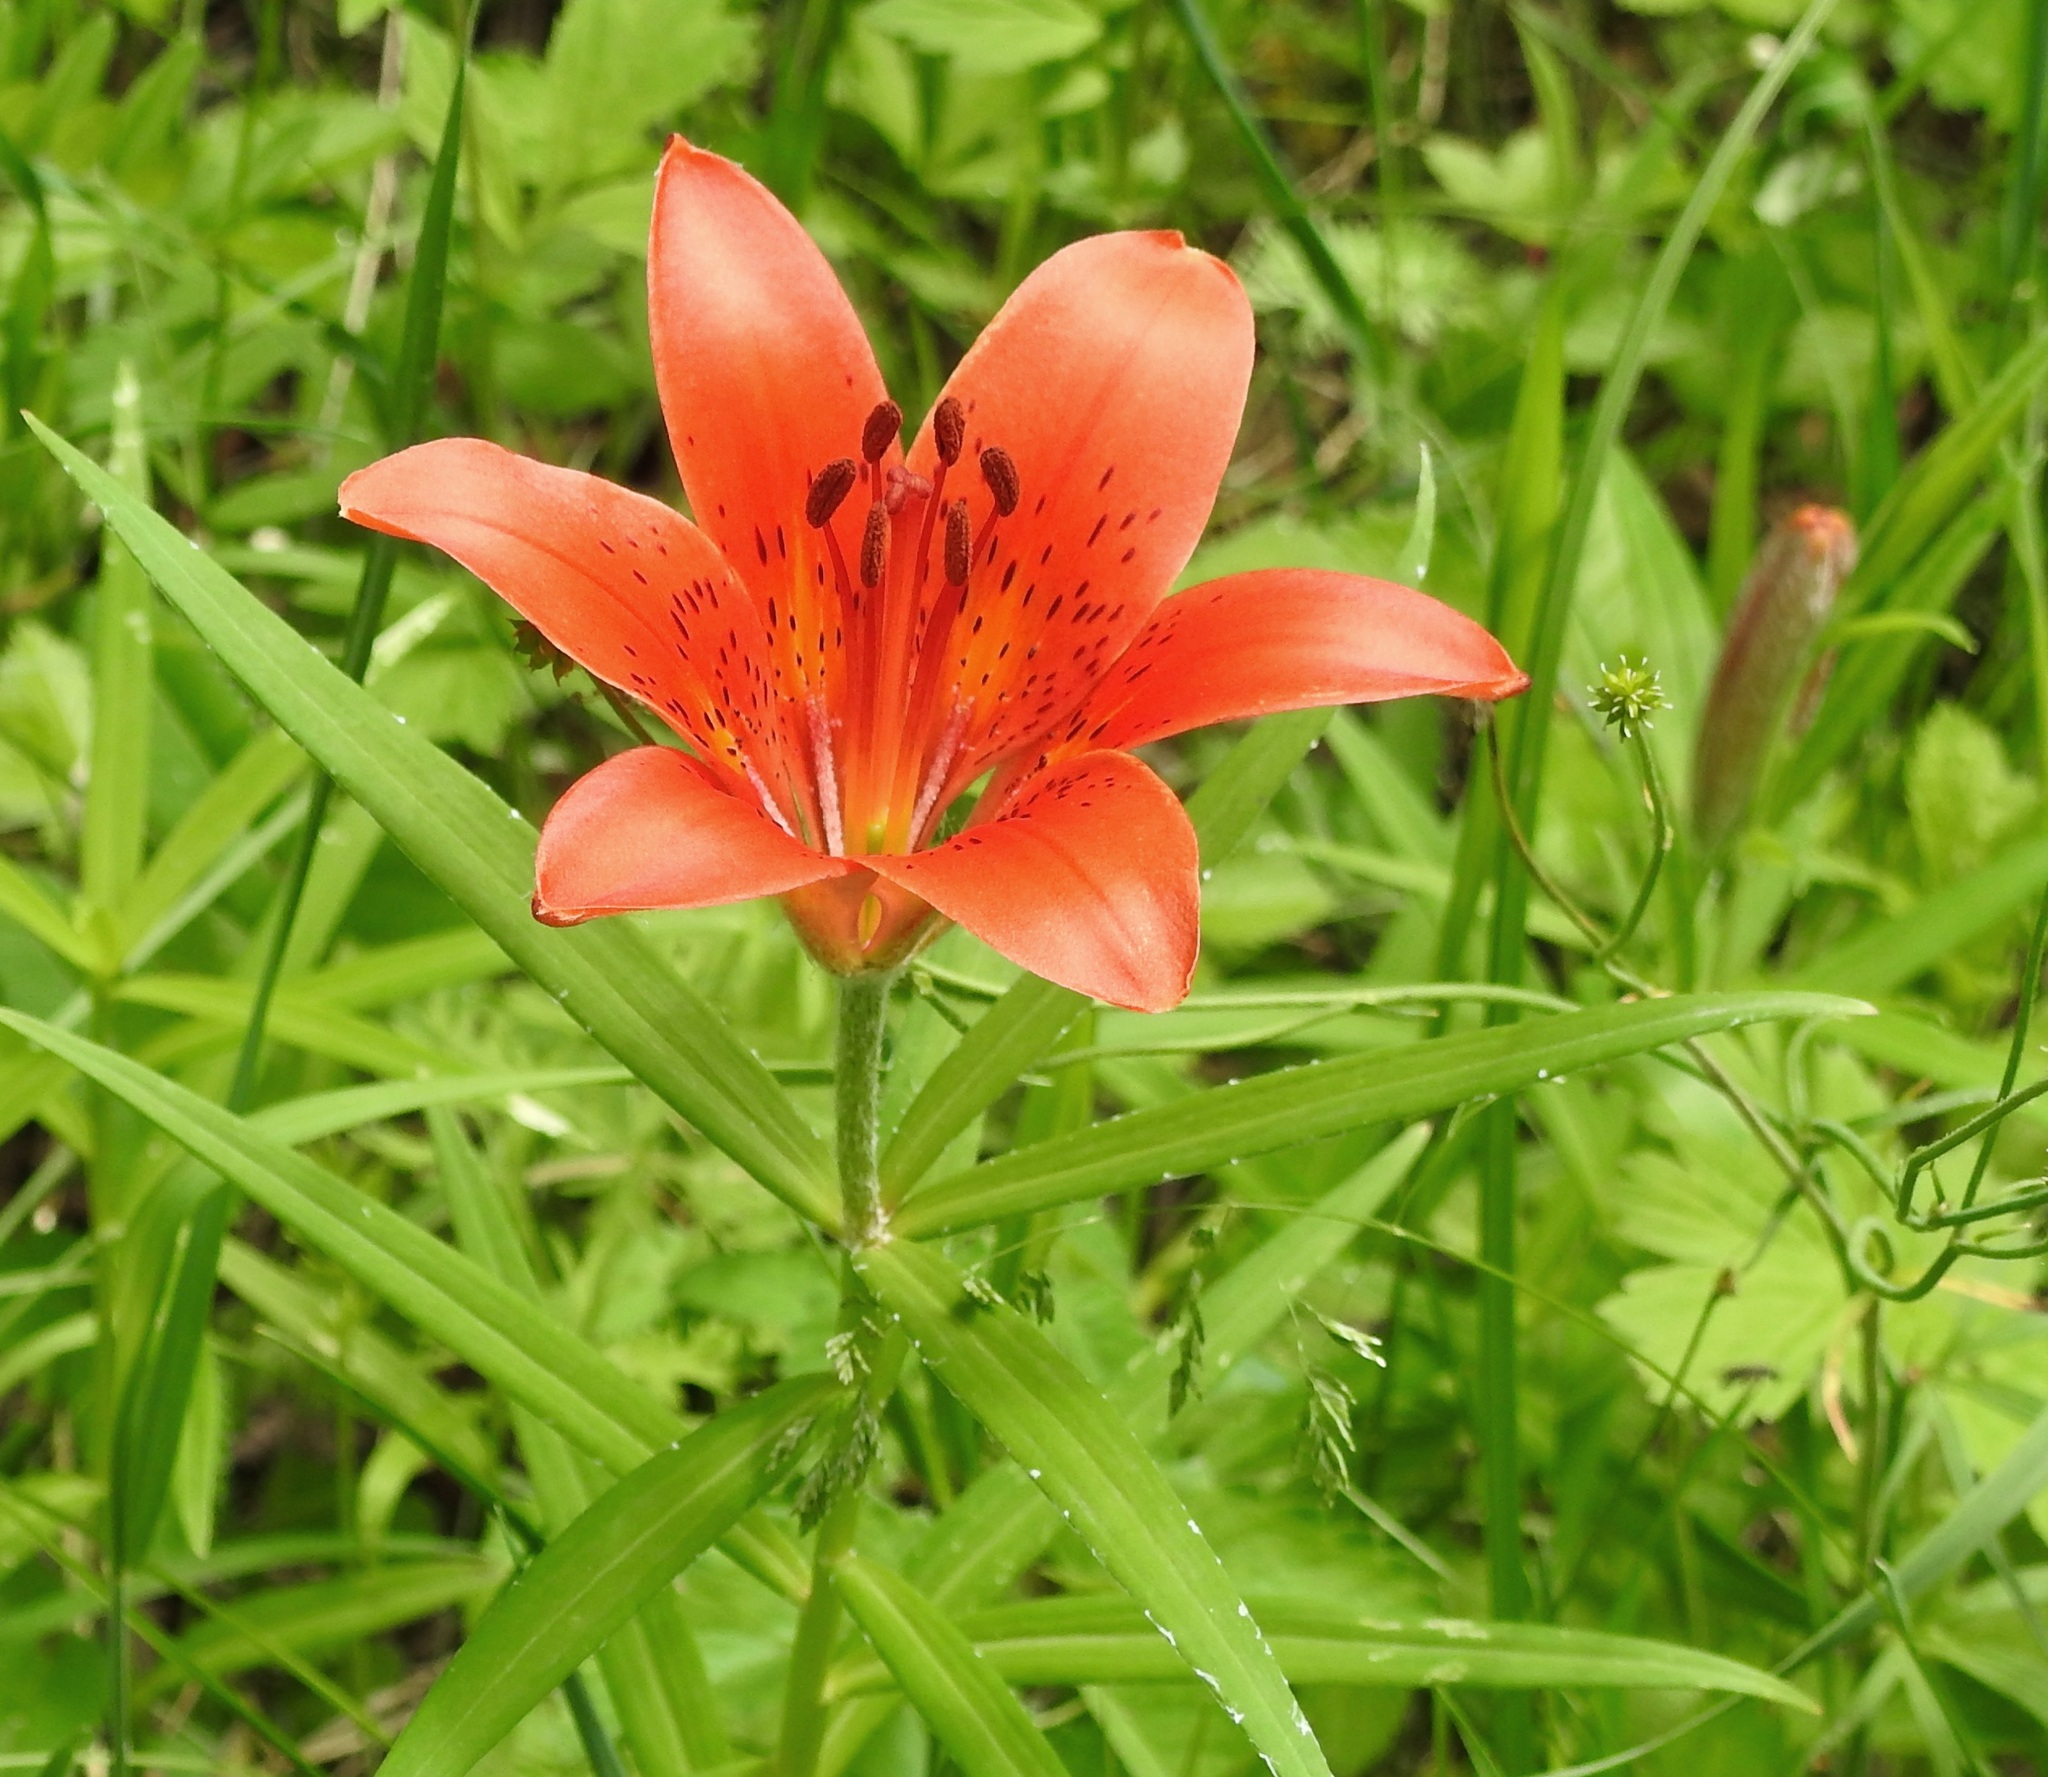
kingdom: Plantae
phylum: Tracheophyta
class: Liliopsida
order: Liliales
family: Liliaceae
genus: Lilium
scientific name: Lilium pensylvanicum
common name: Candlestick lily
